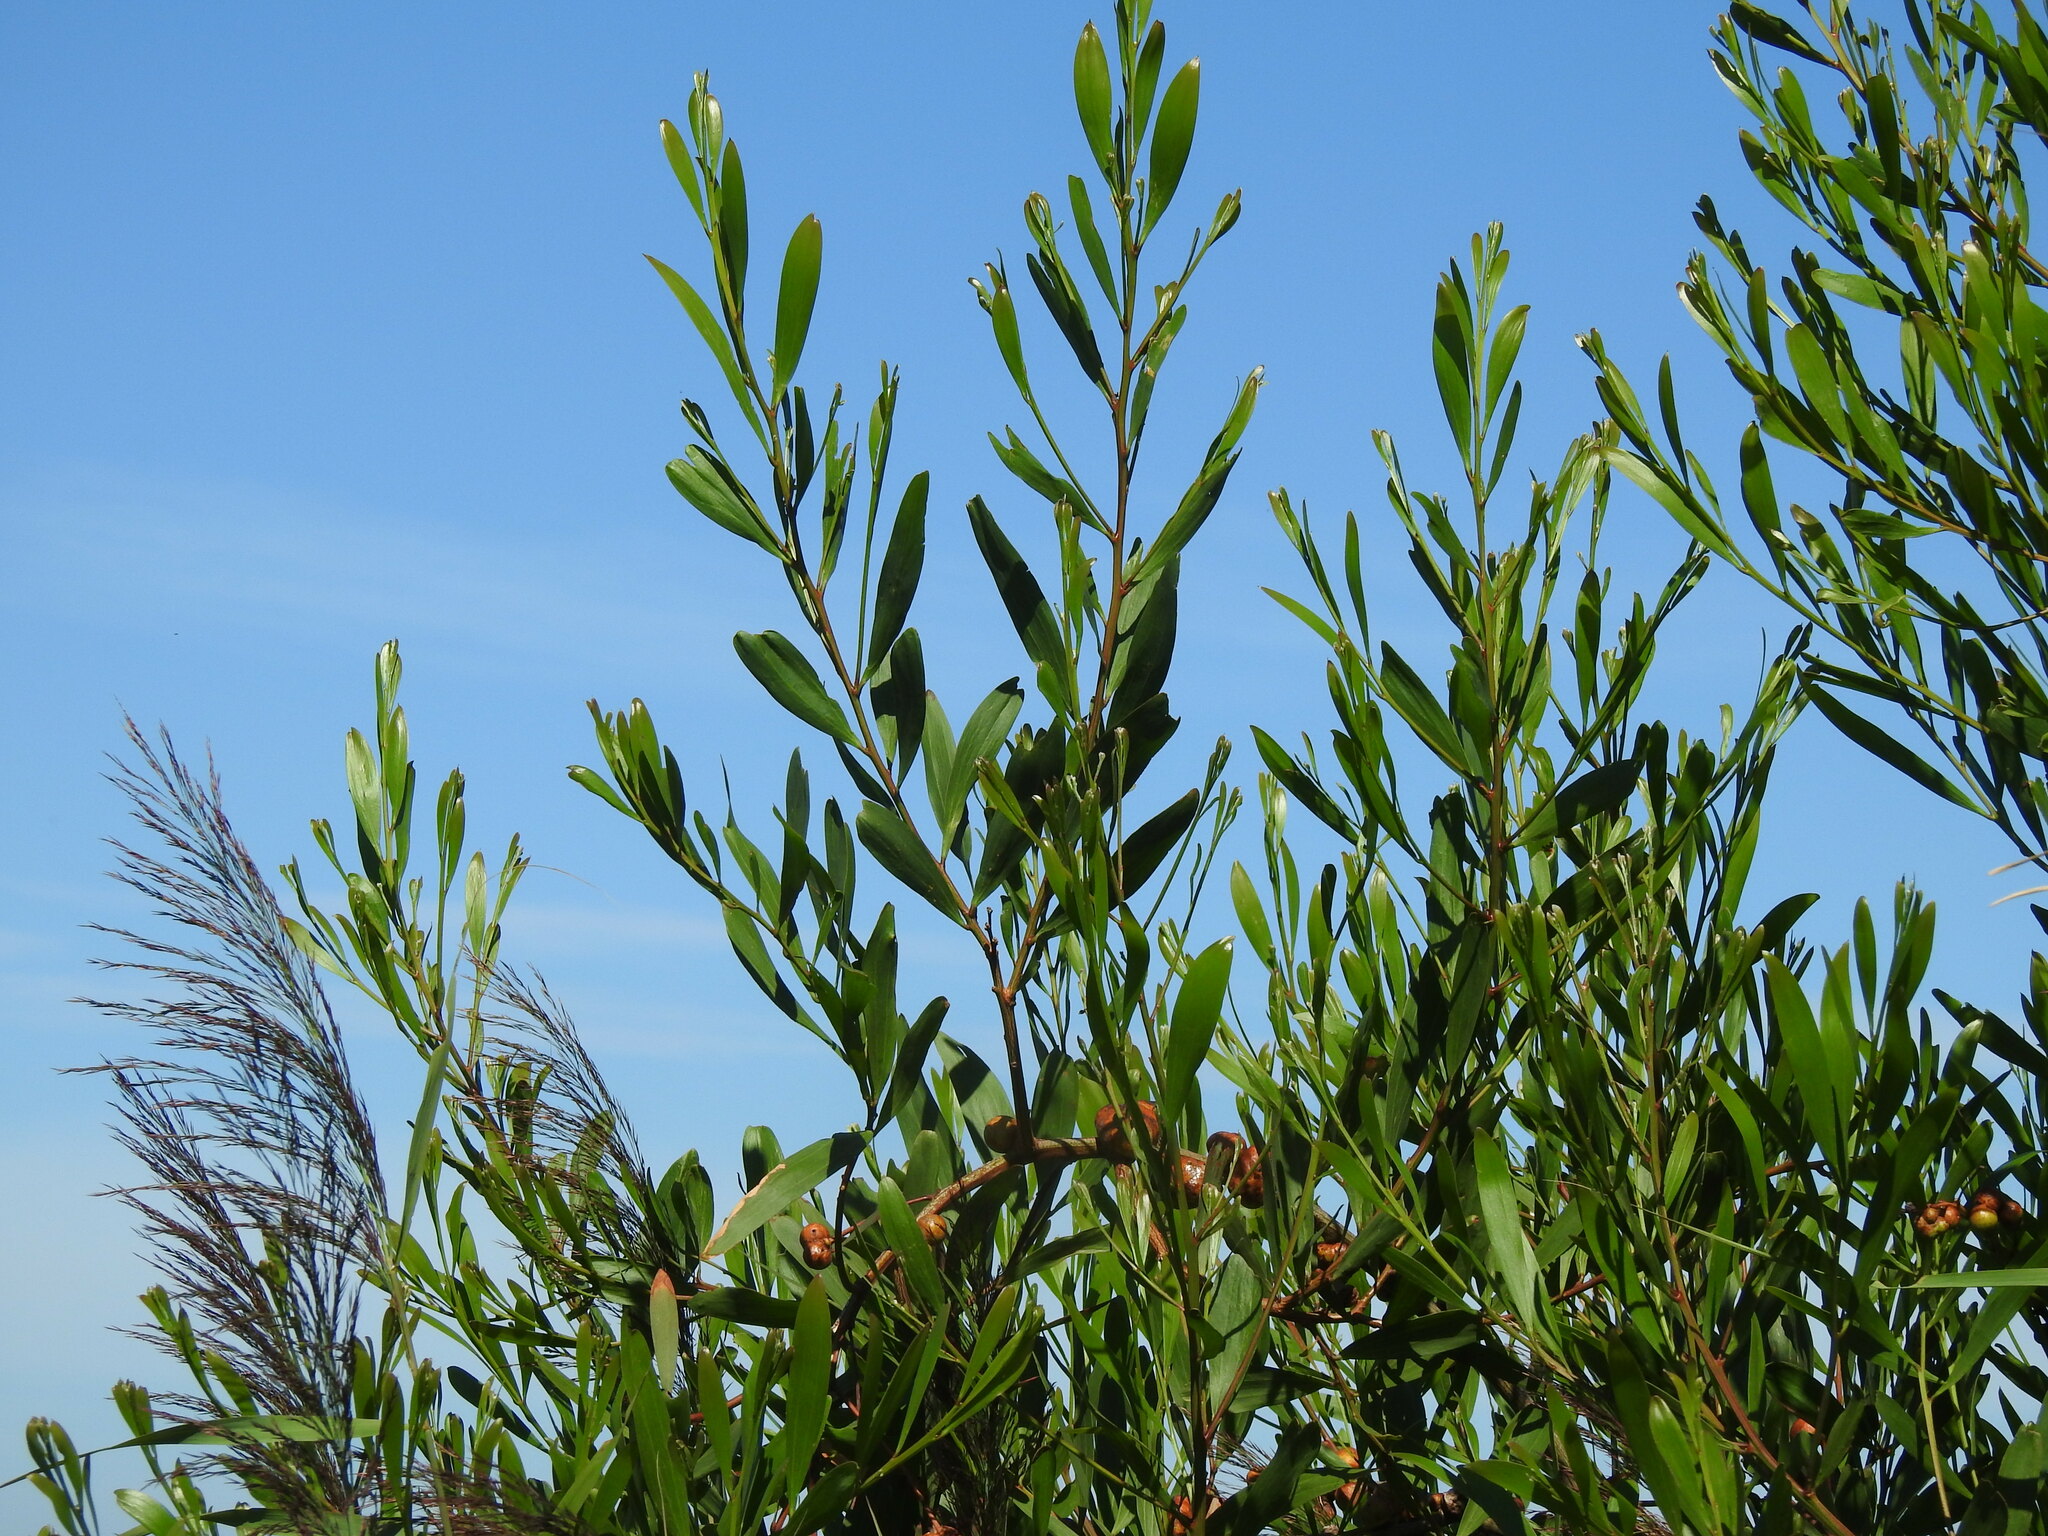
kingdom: Plantae
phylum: Tracheophyta
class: Magnoliopsida
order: Fabales
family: Fabaceae
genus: Acacia
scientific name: Acacia longifolia
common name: Sydney golden wattle
